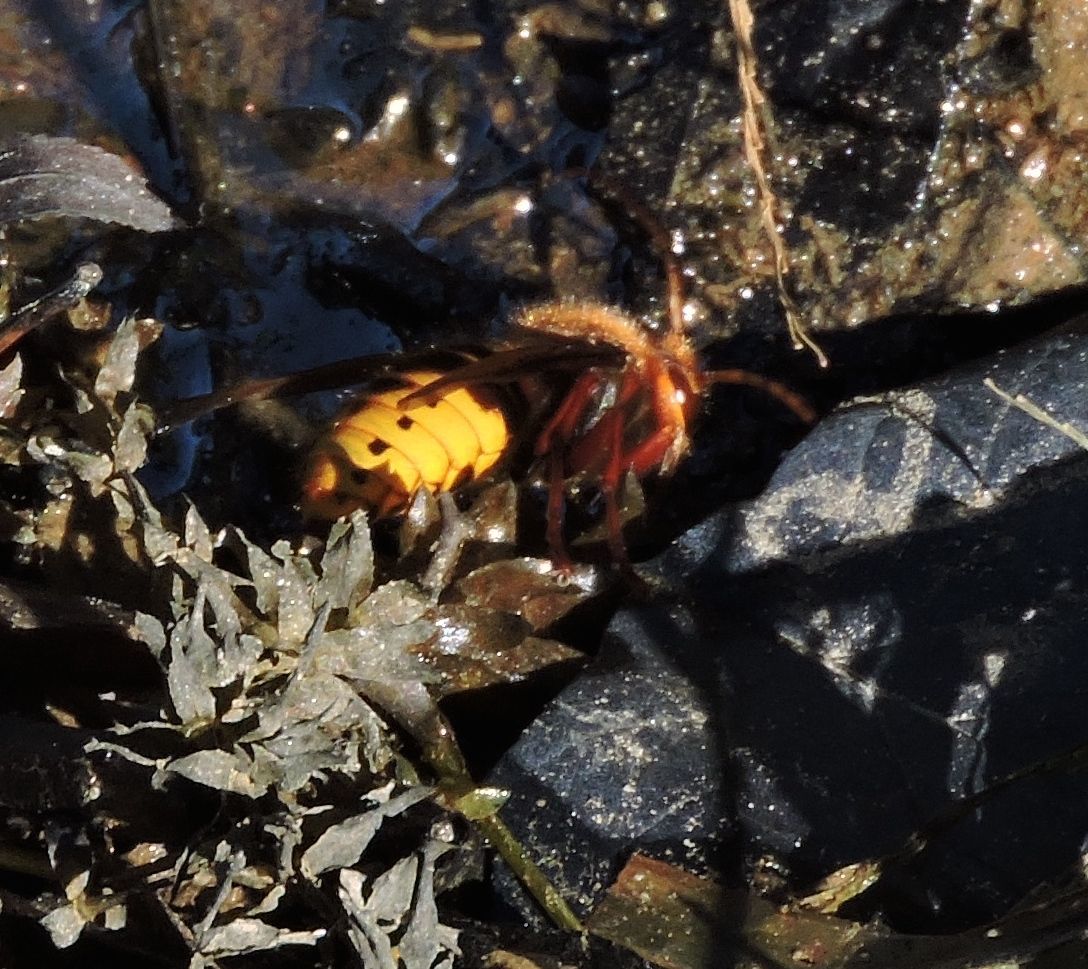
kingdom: Animalia
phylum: Arthropoda
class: Insecta
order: Hymenoptera
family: Vespidae
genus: Vespa
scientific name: Vespa crabro
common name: Hornet
